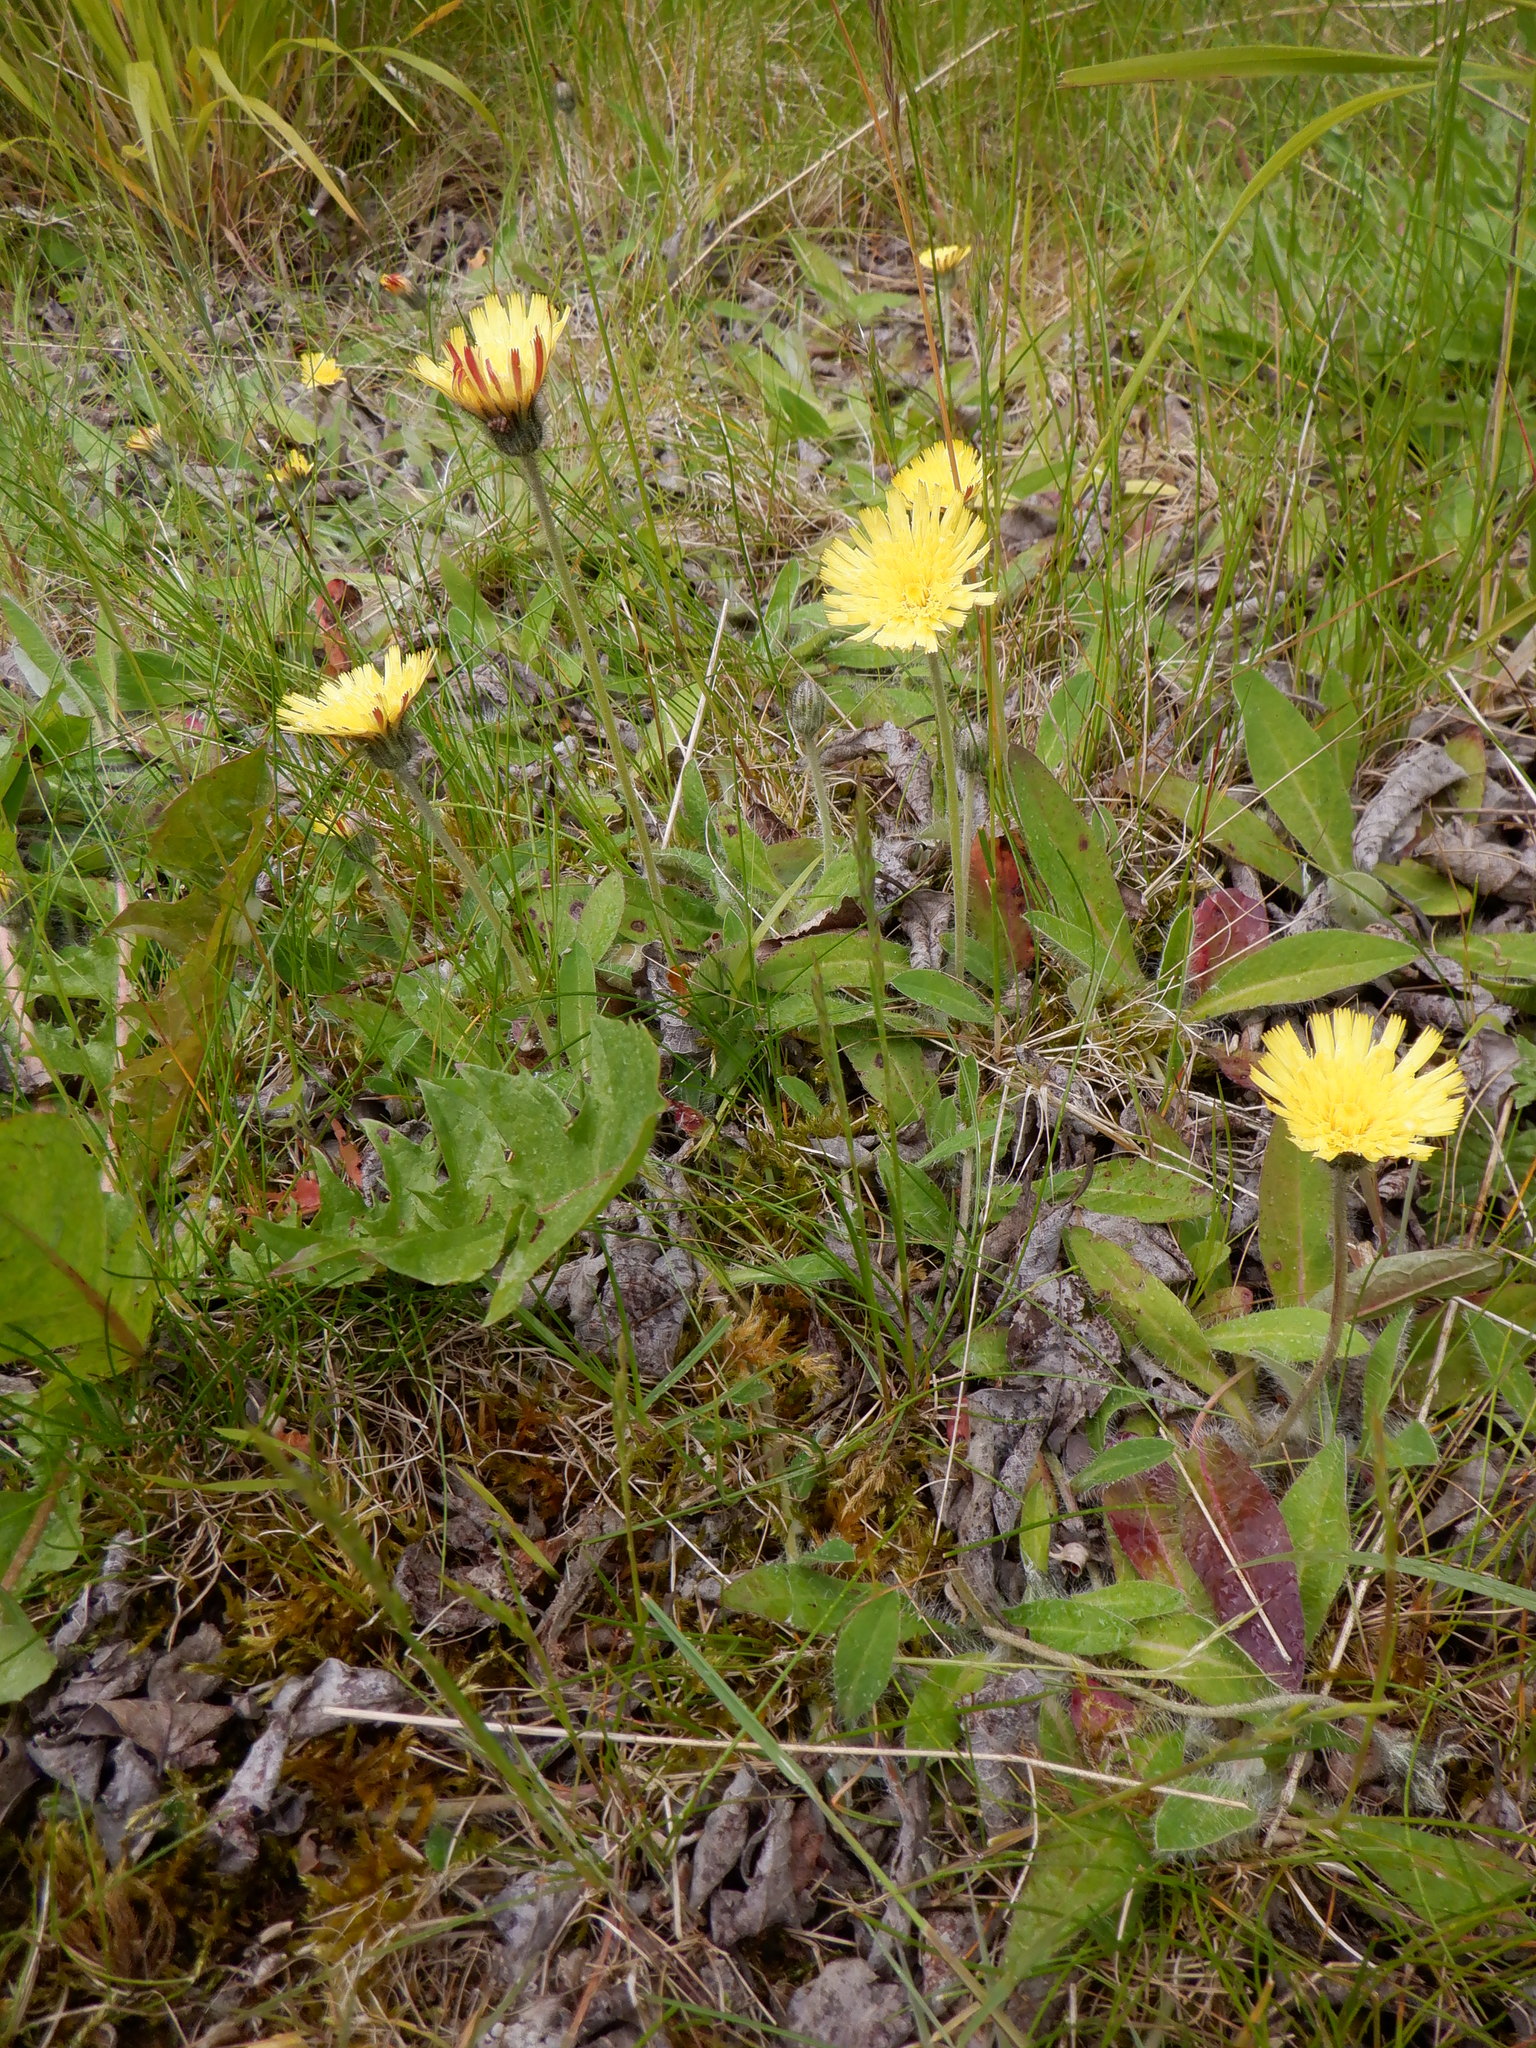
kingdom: Plantae
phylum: Tracheophyta
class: Magnoliopsida
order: Asterales
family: Asteraceae
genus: Pilosella
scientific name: Pilosella officinarum
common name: Mouse-ear hawkweed
